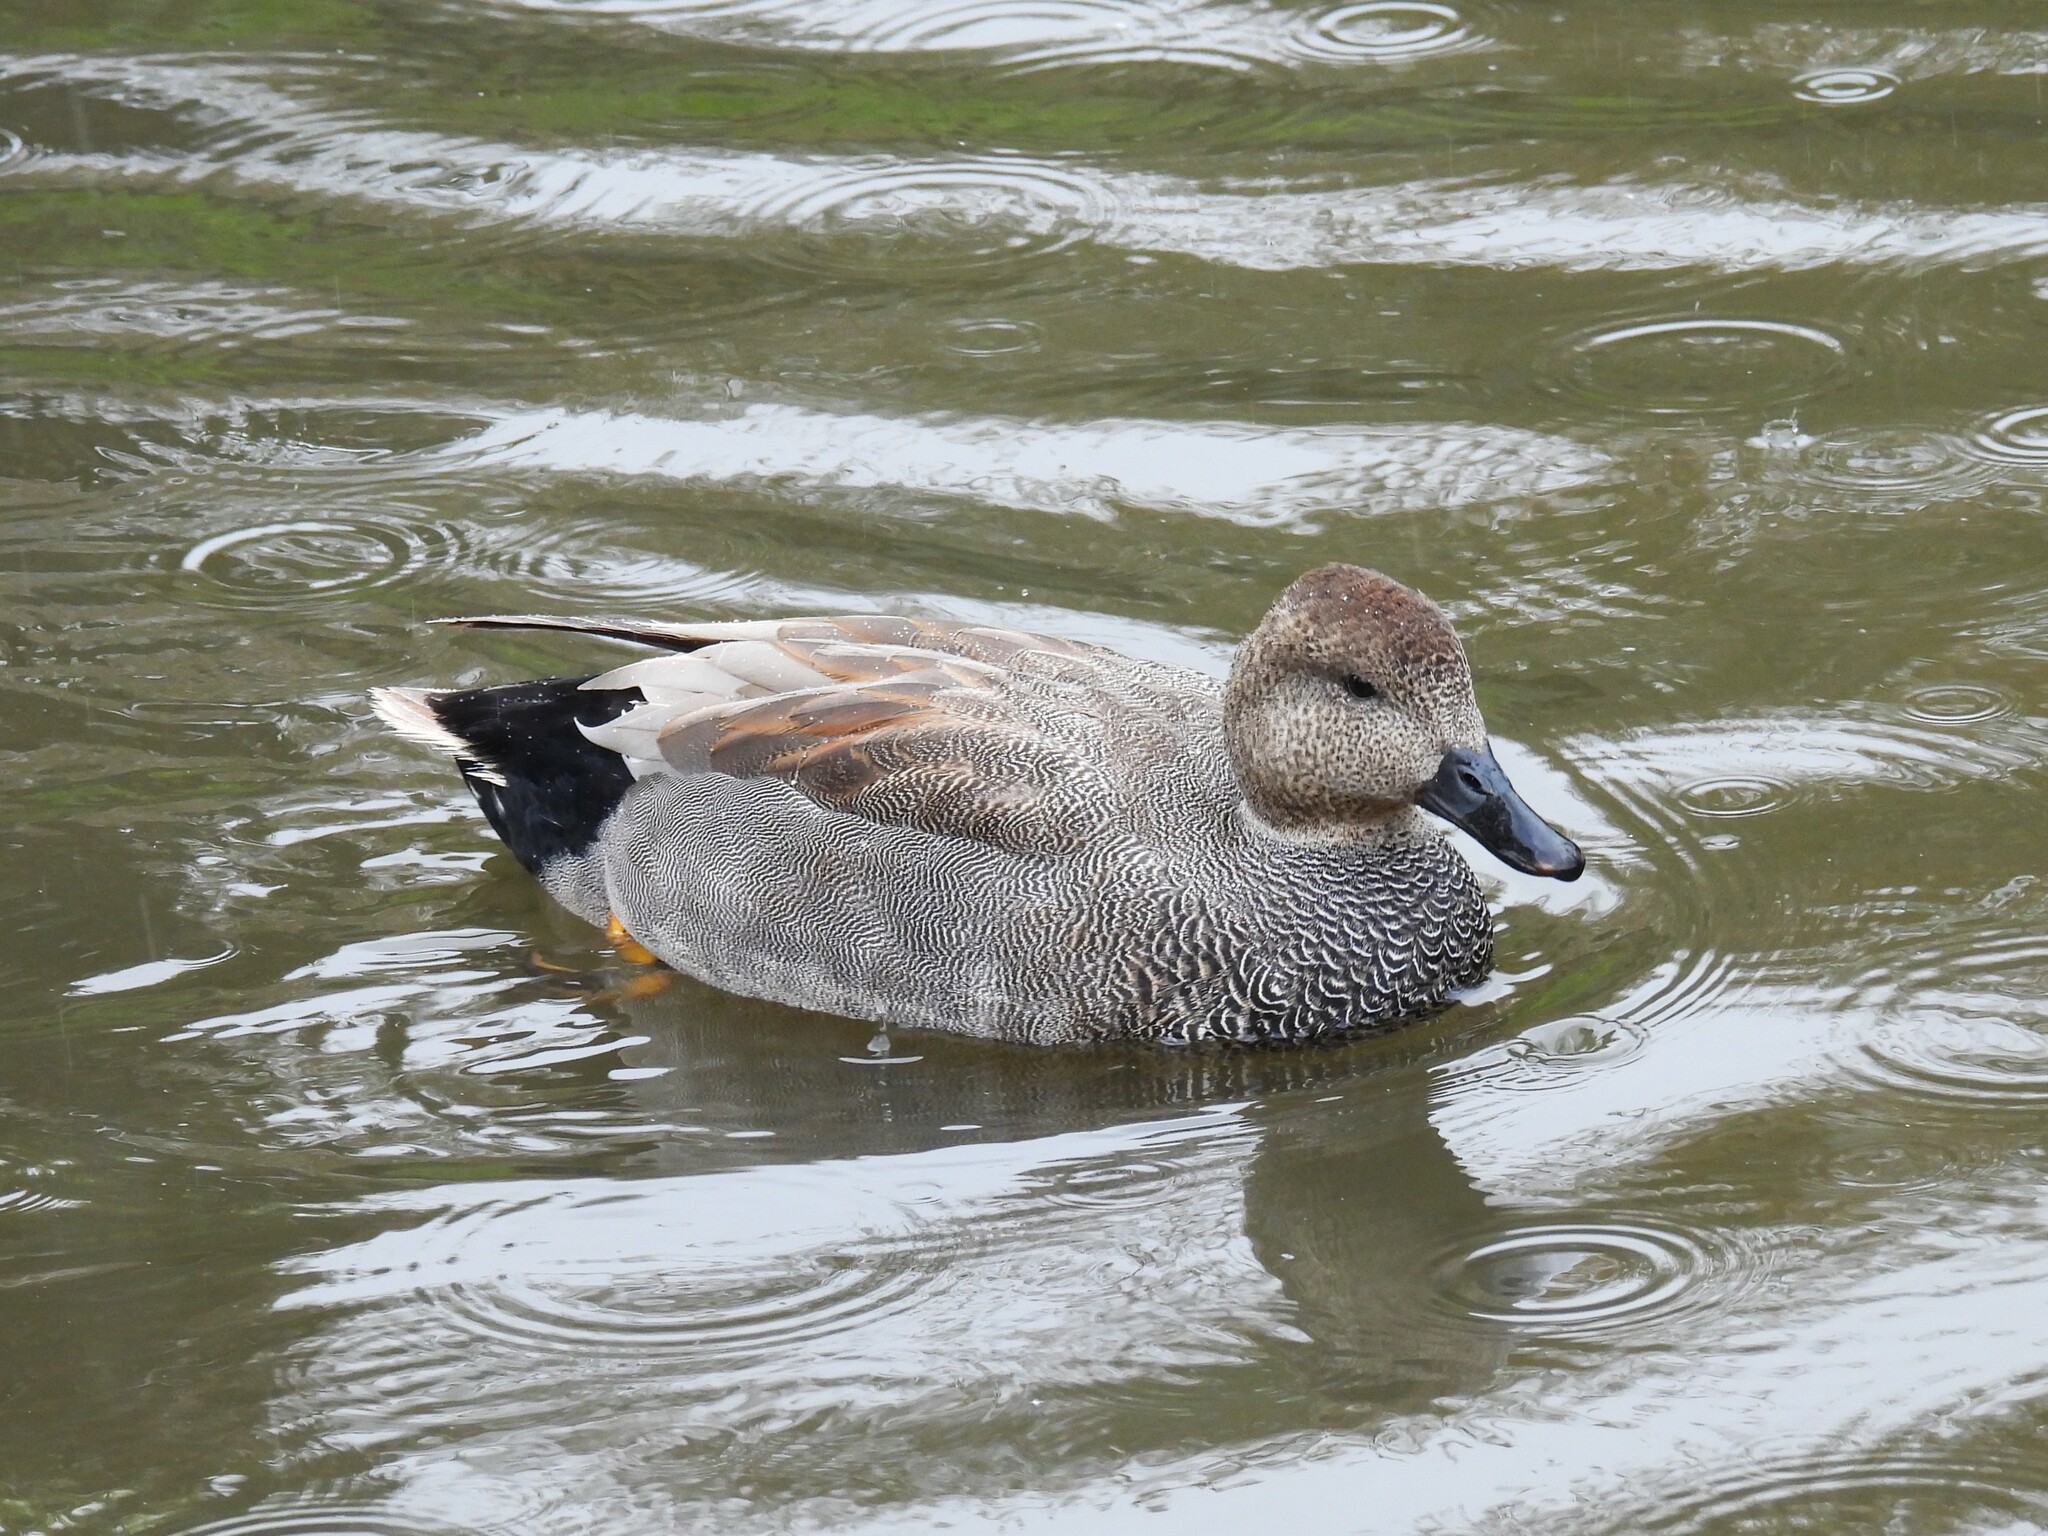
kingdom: Animalia
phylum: Chordata
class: Aves
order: Anseriformes
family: Anatidae
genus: Mareca
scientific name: Mareca strepera
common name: Gadwall
